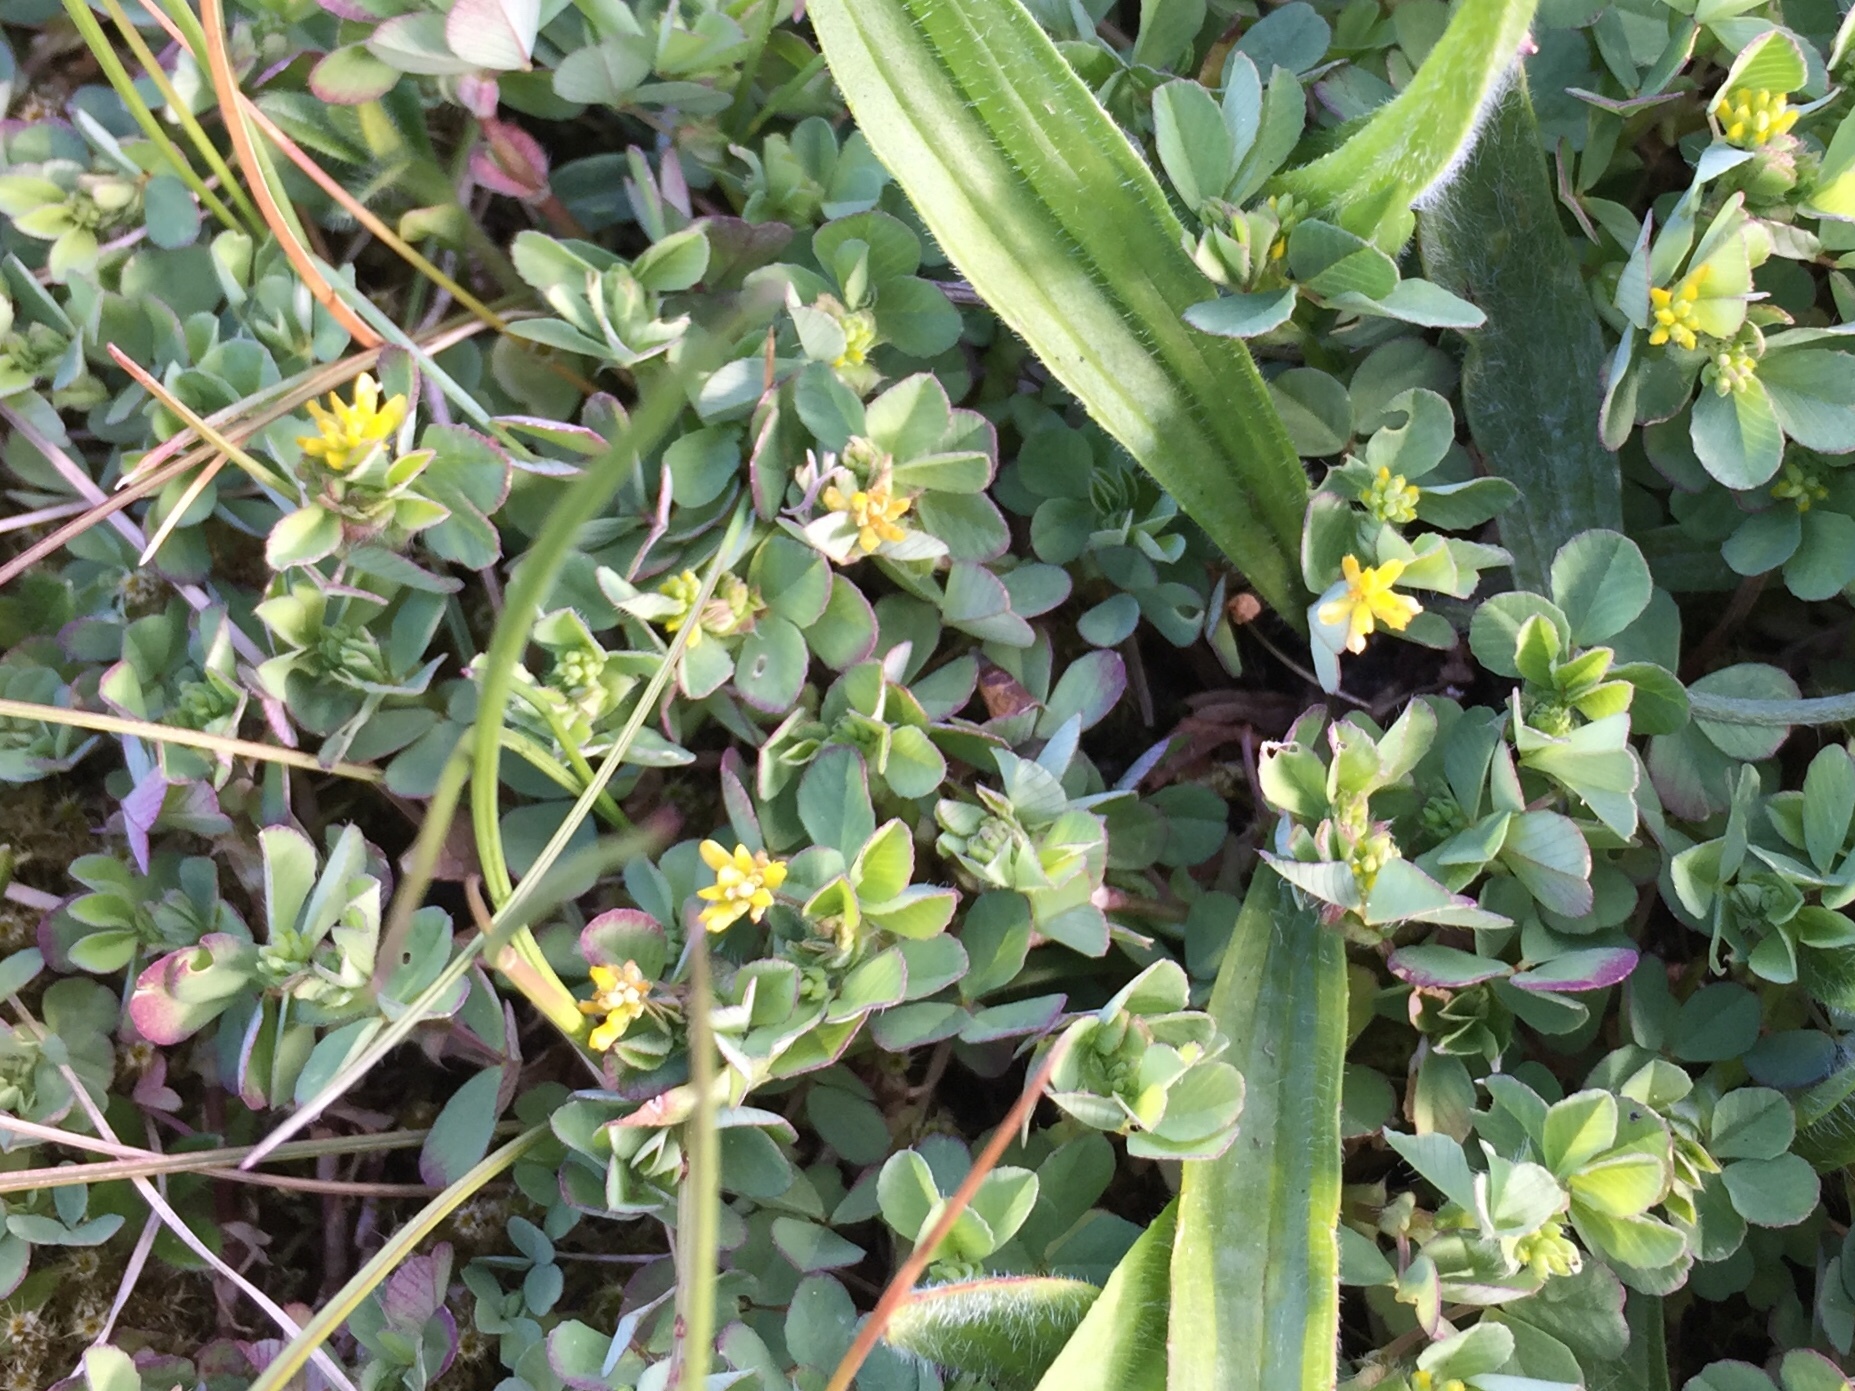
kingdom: Plantae
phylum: Tracheophyta
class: Magnoliopsida
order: Fabales
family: Fabaceae
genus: Trifolium
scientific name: Trifolium dubium
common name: Suckling clover
